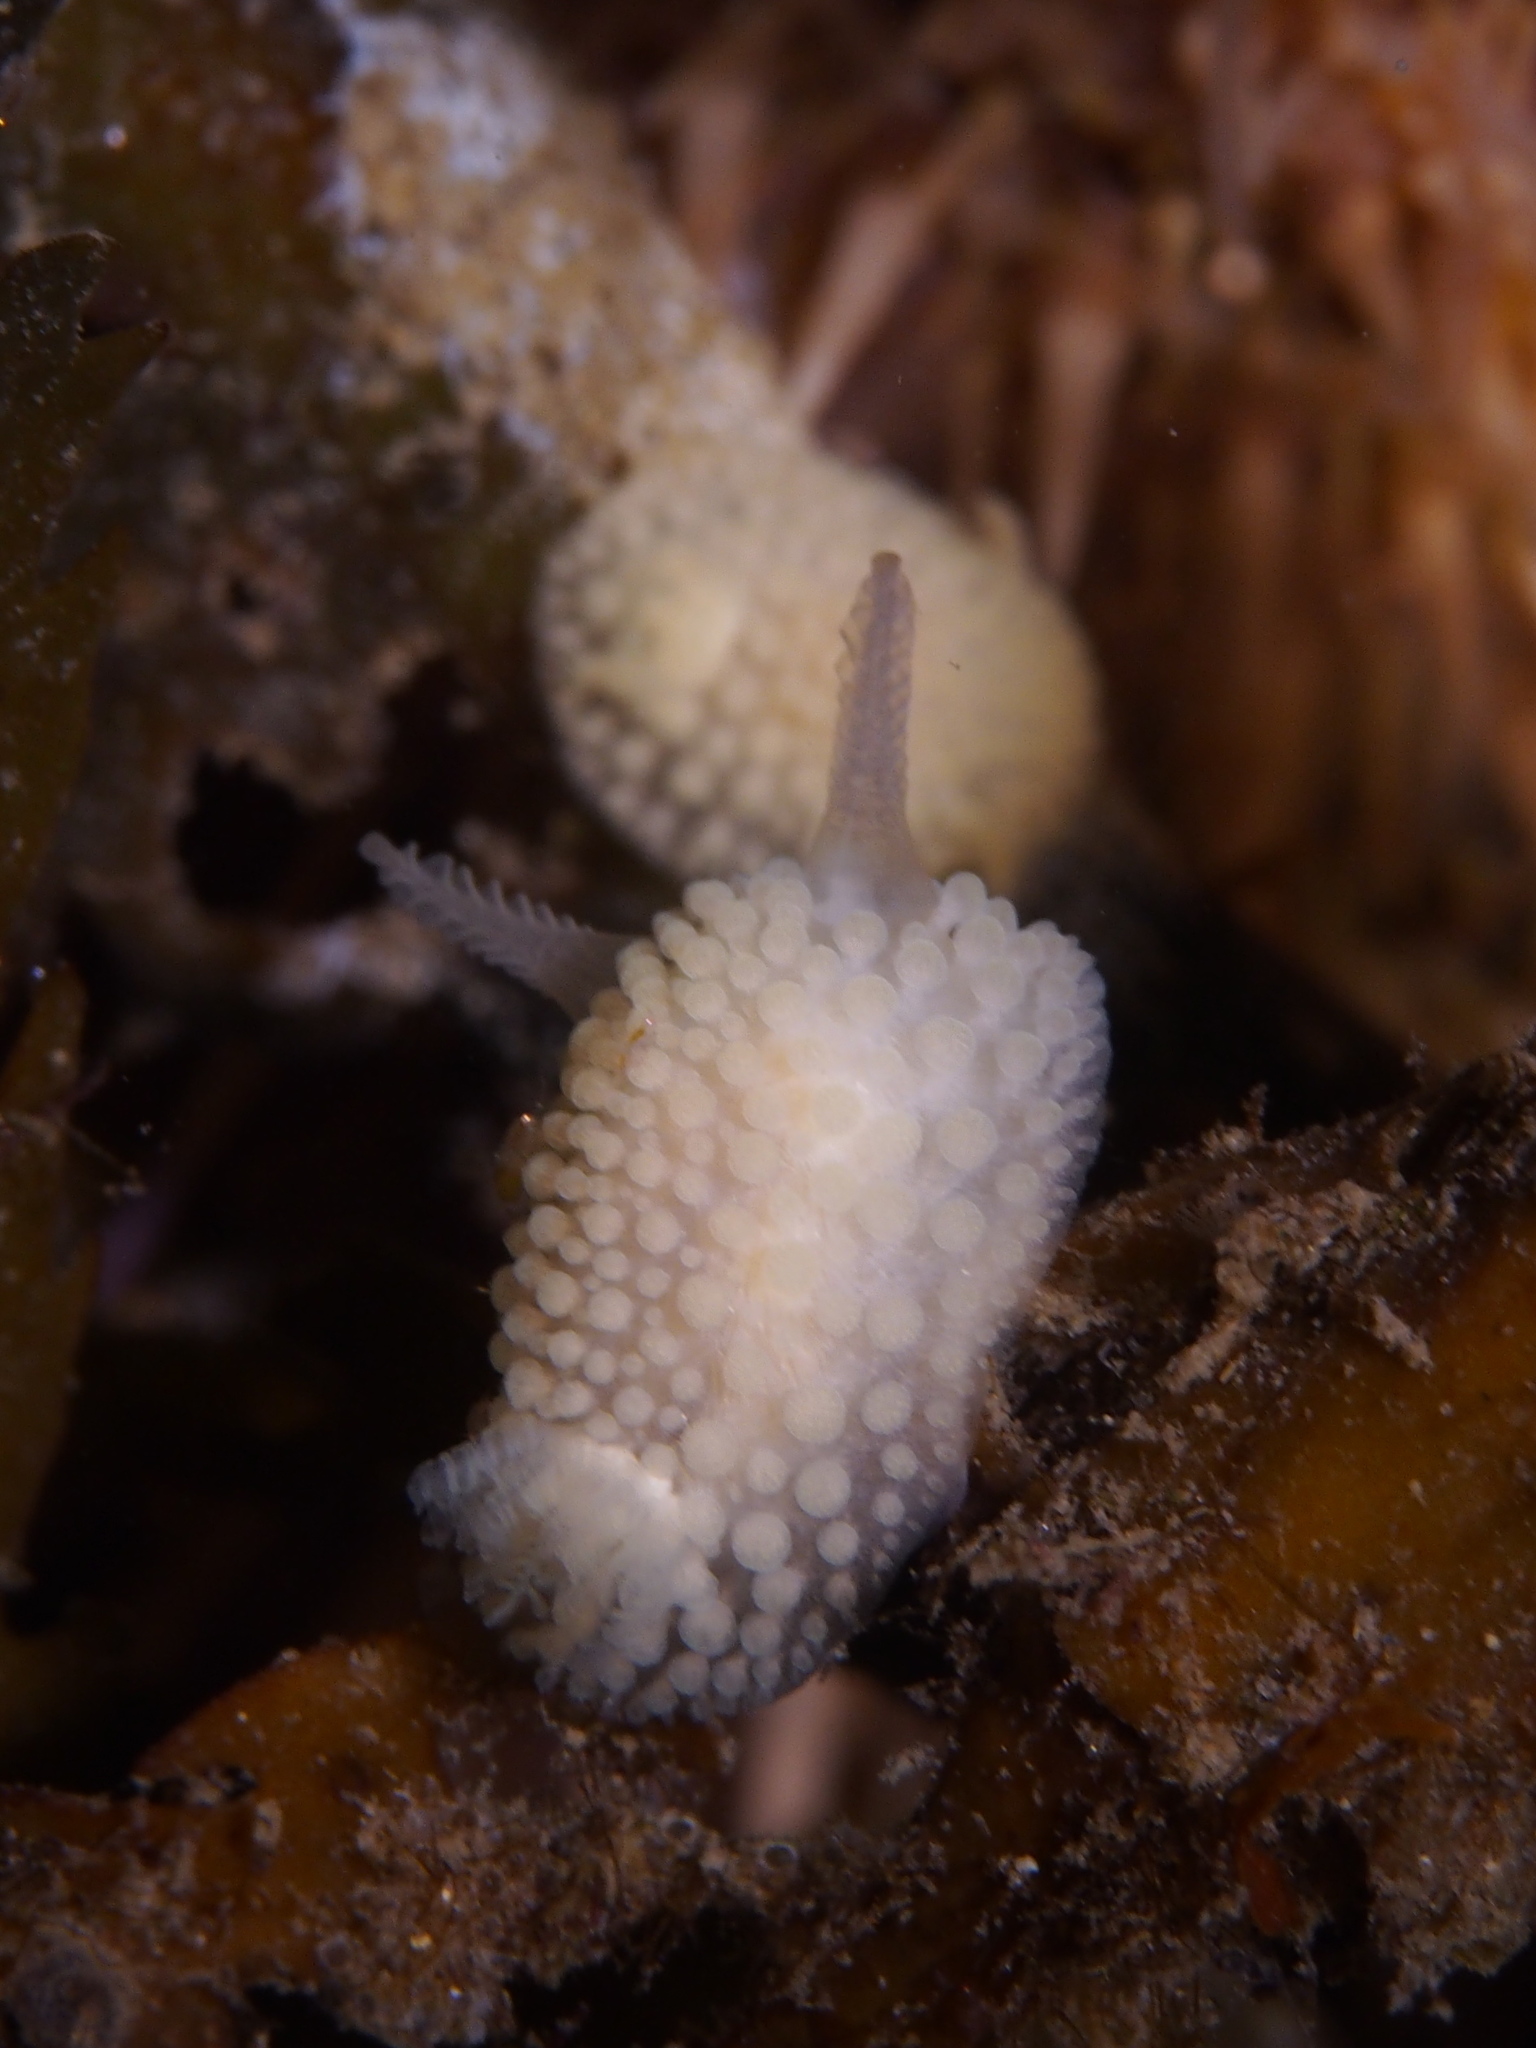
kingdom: Animalia
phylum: Mollusca
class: Gastropoda
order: Nudibranchia
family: Onchidorididae
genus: Onchidoris
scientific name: Onchidoris muricata
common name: Rough doris
